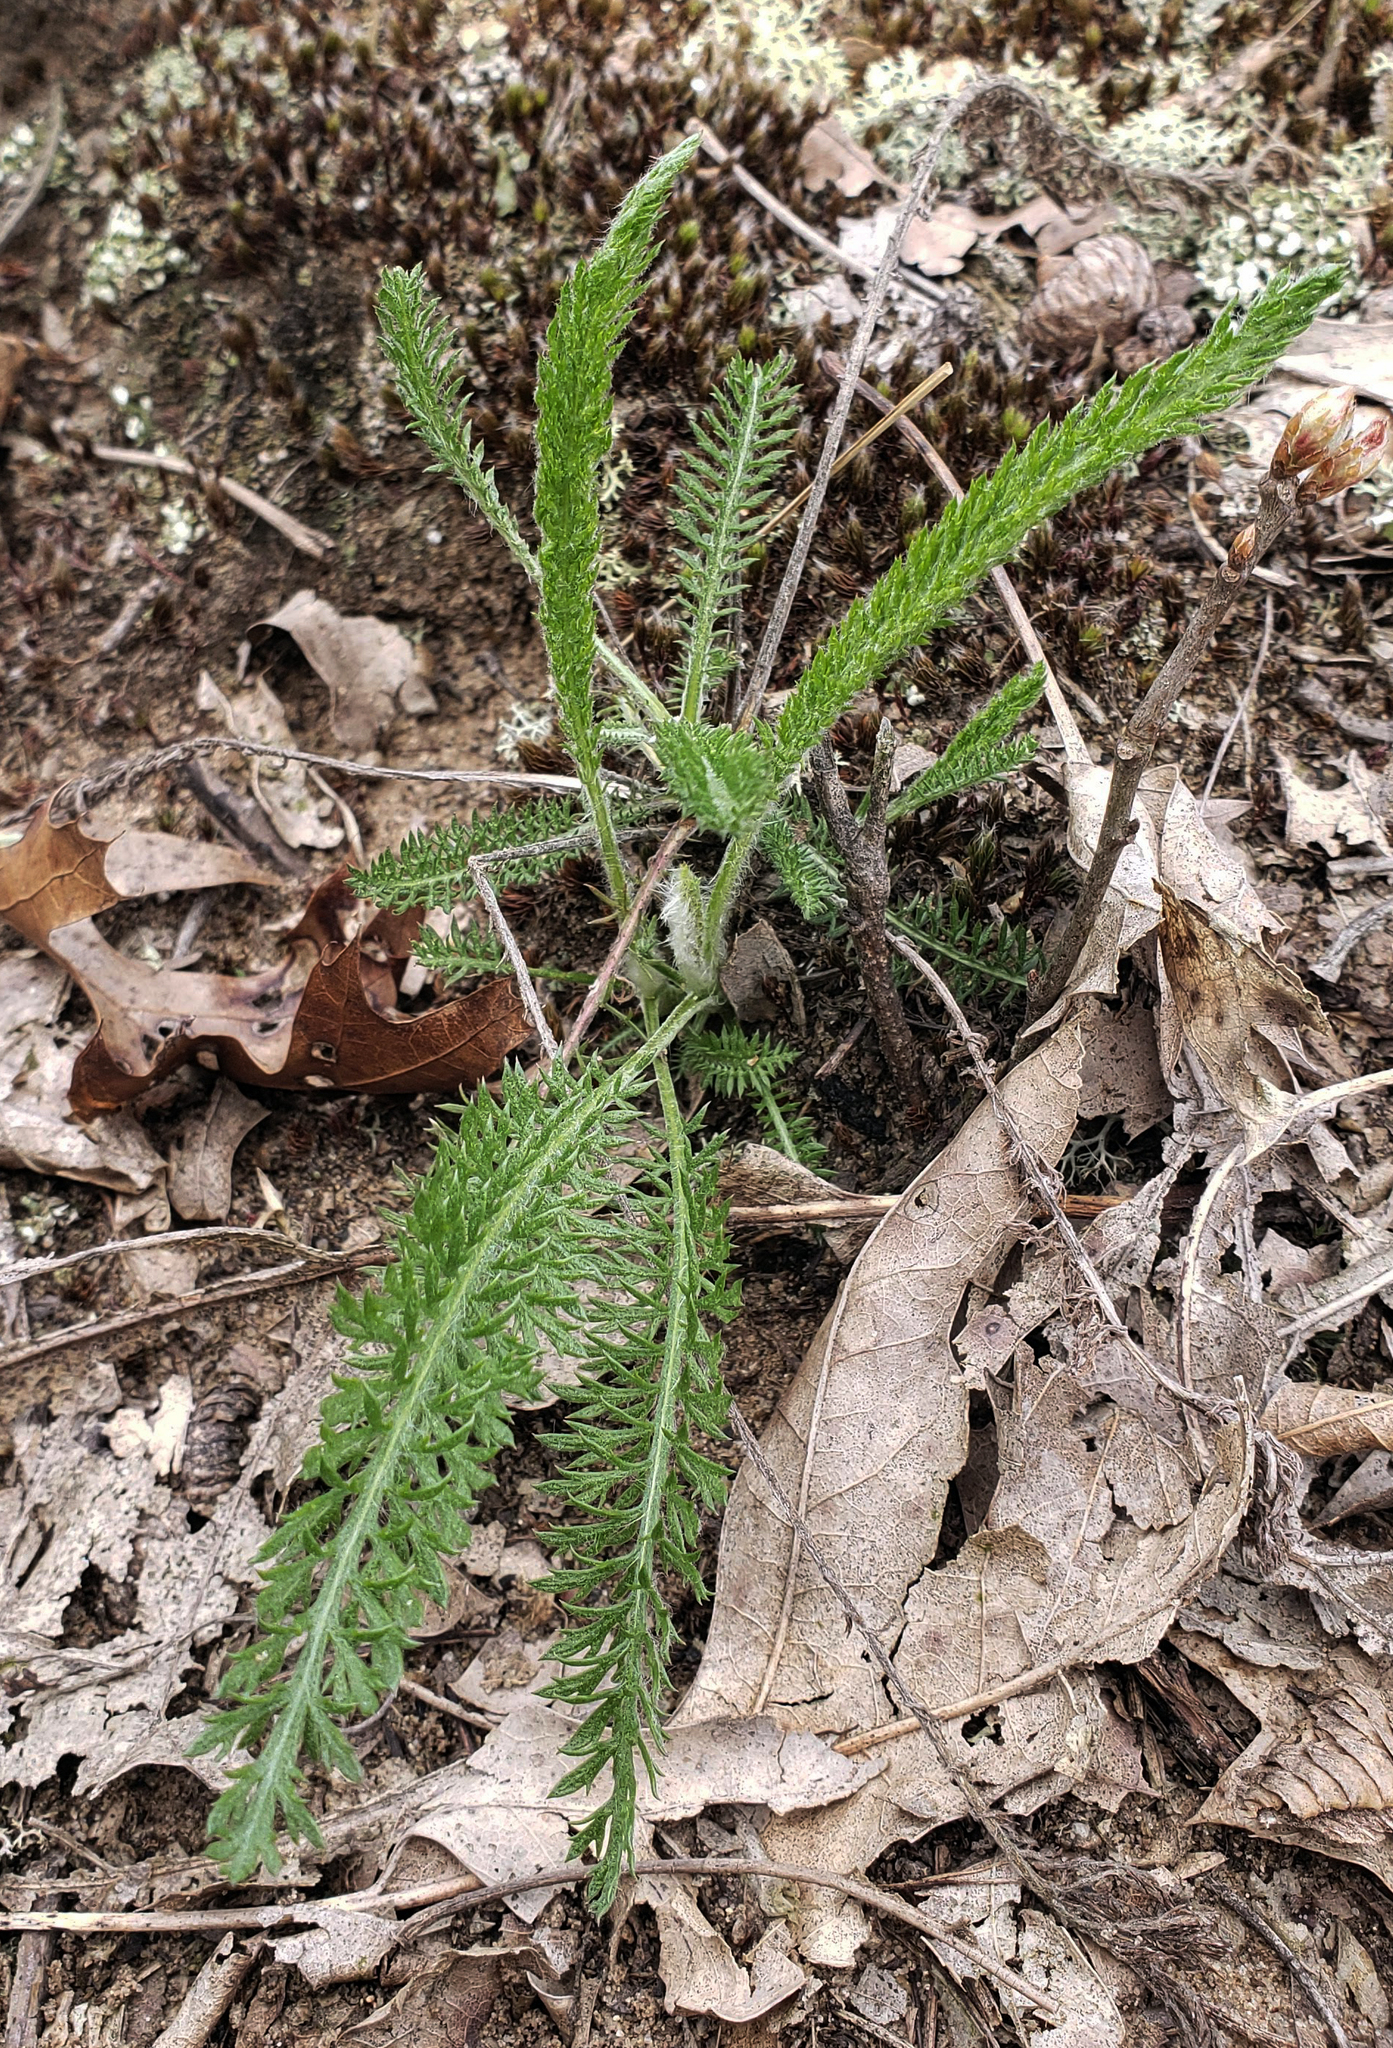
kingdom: Plantae
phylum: Tracheophyta
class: Magnoliopsida
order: Asterales
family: Asteraceae
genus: Achillea
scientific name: Achillea millefolium
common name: Yarrow
